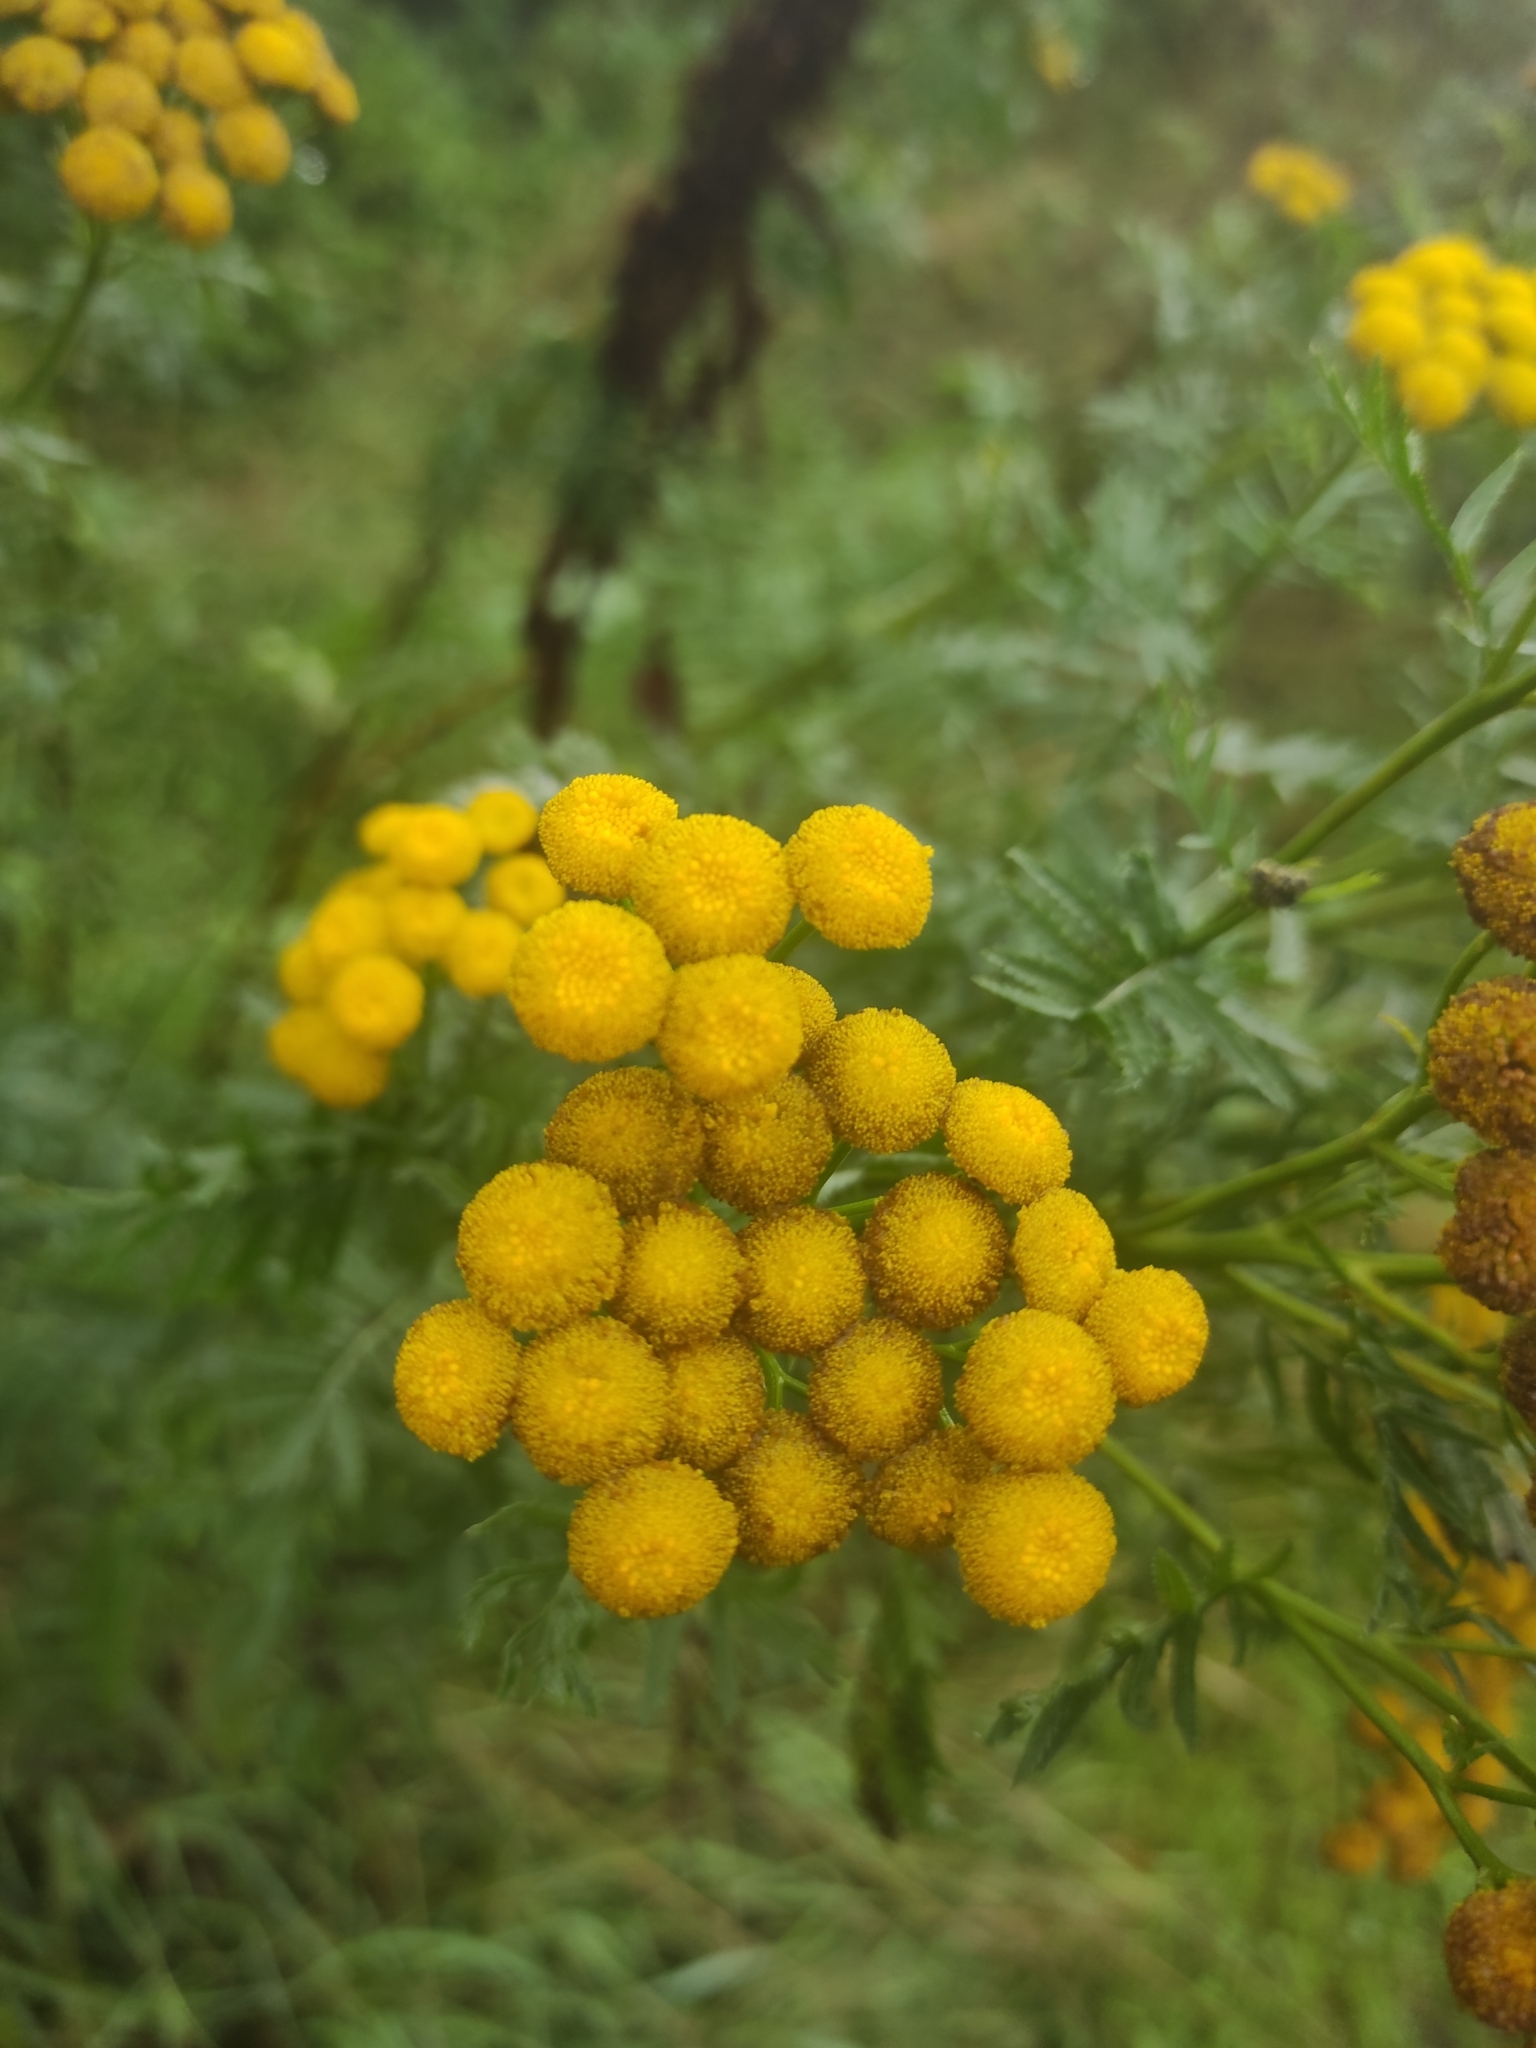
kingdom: Plantae
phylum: Tracheophyta
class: Magnoliopsida
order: Asterales
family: Asteraceae
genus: Tanacetum
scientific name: Tanacetum vulgare
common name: Common tansy
